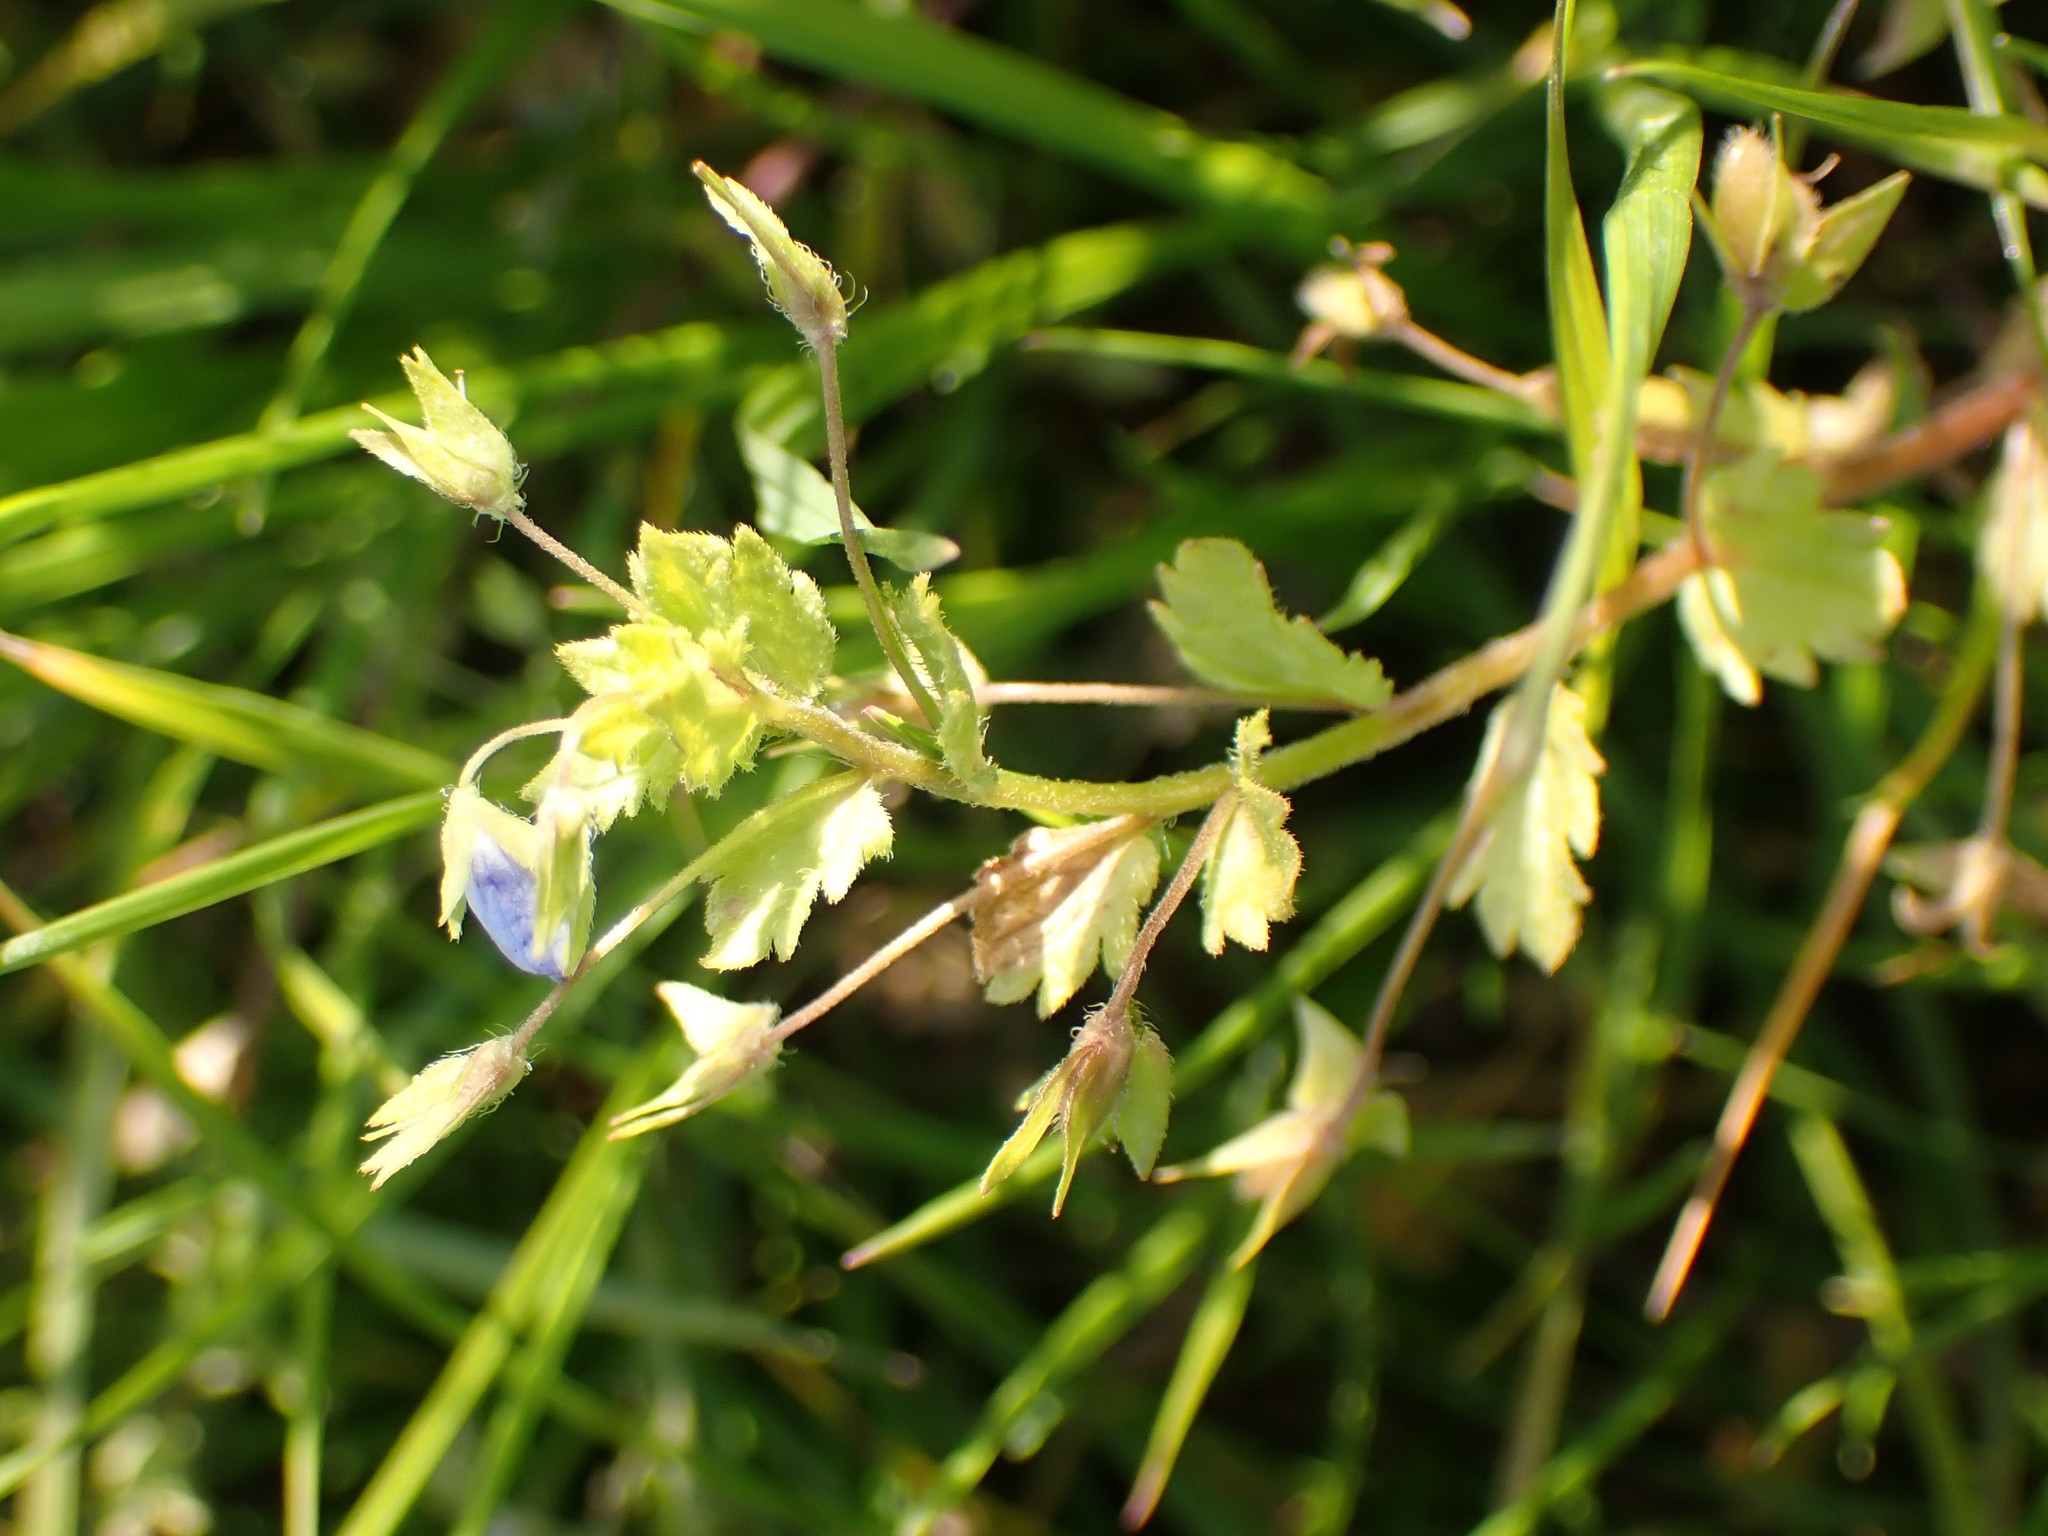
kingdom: Plantae
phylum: Tracheophyta
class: Magnoliopsida
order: Lamiales
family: Plantaginaceae
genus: Veronica
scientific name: Veronica persica
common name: Common field-speedwell
